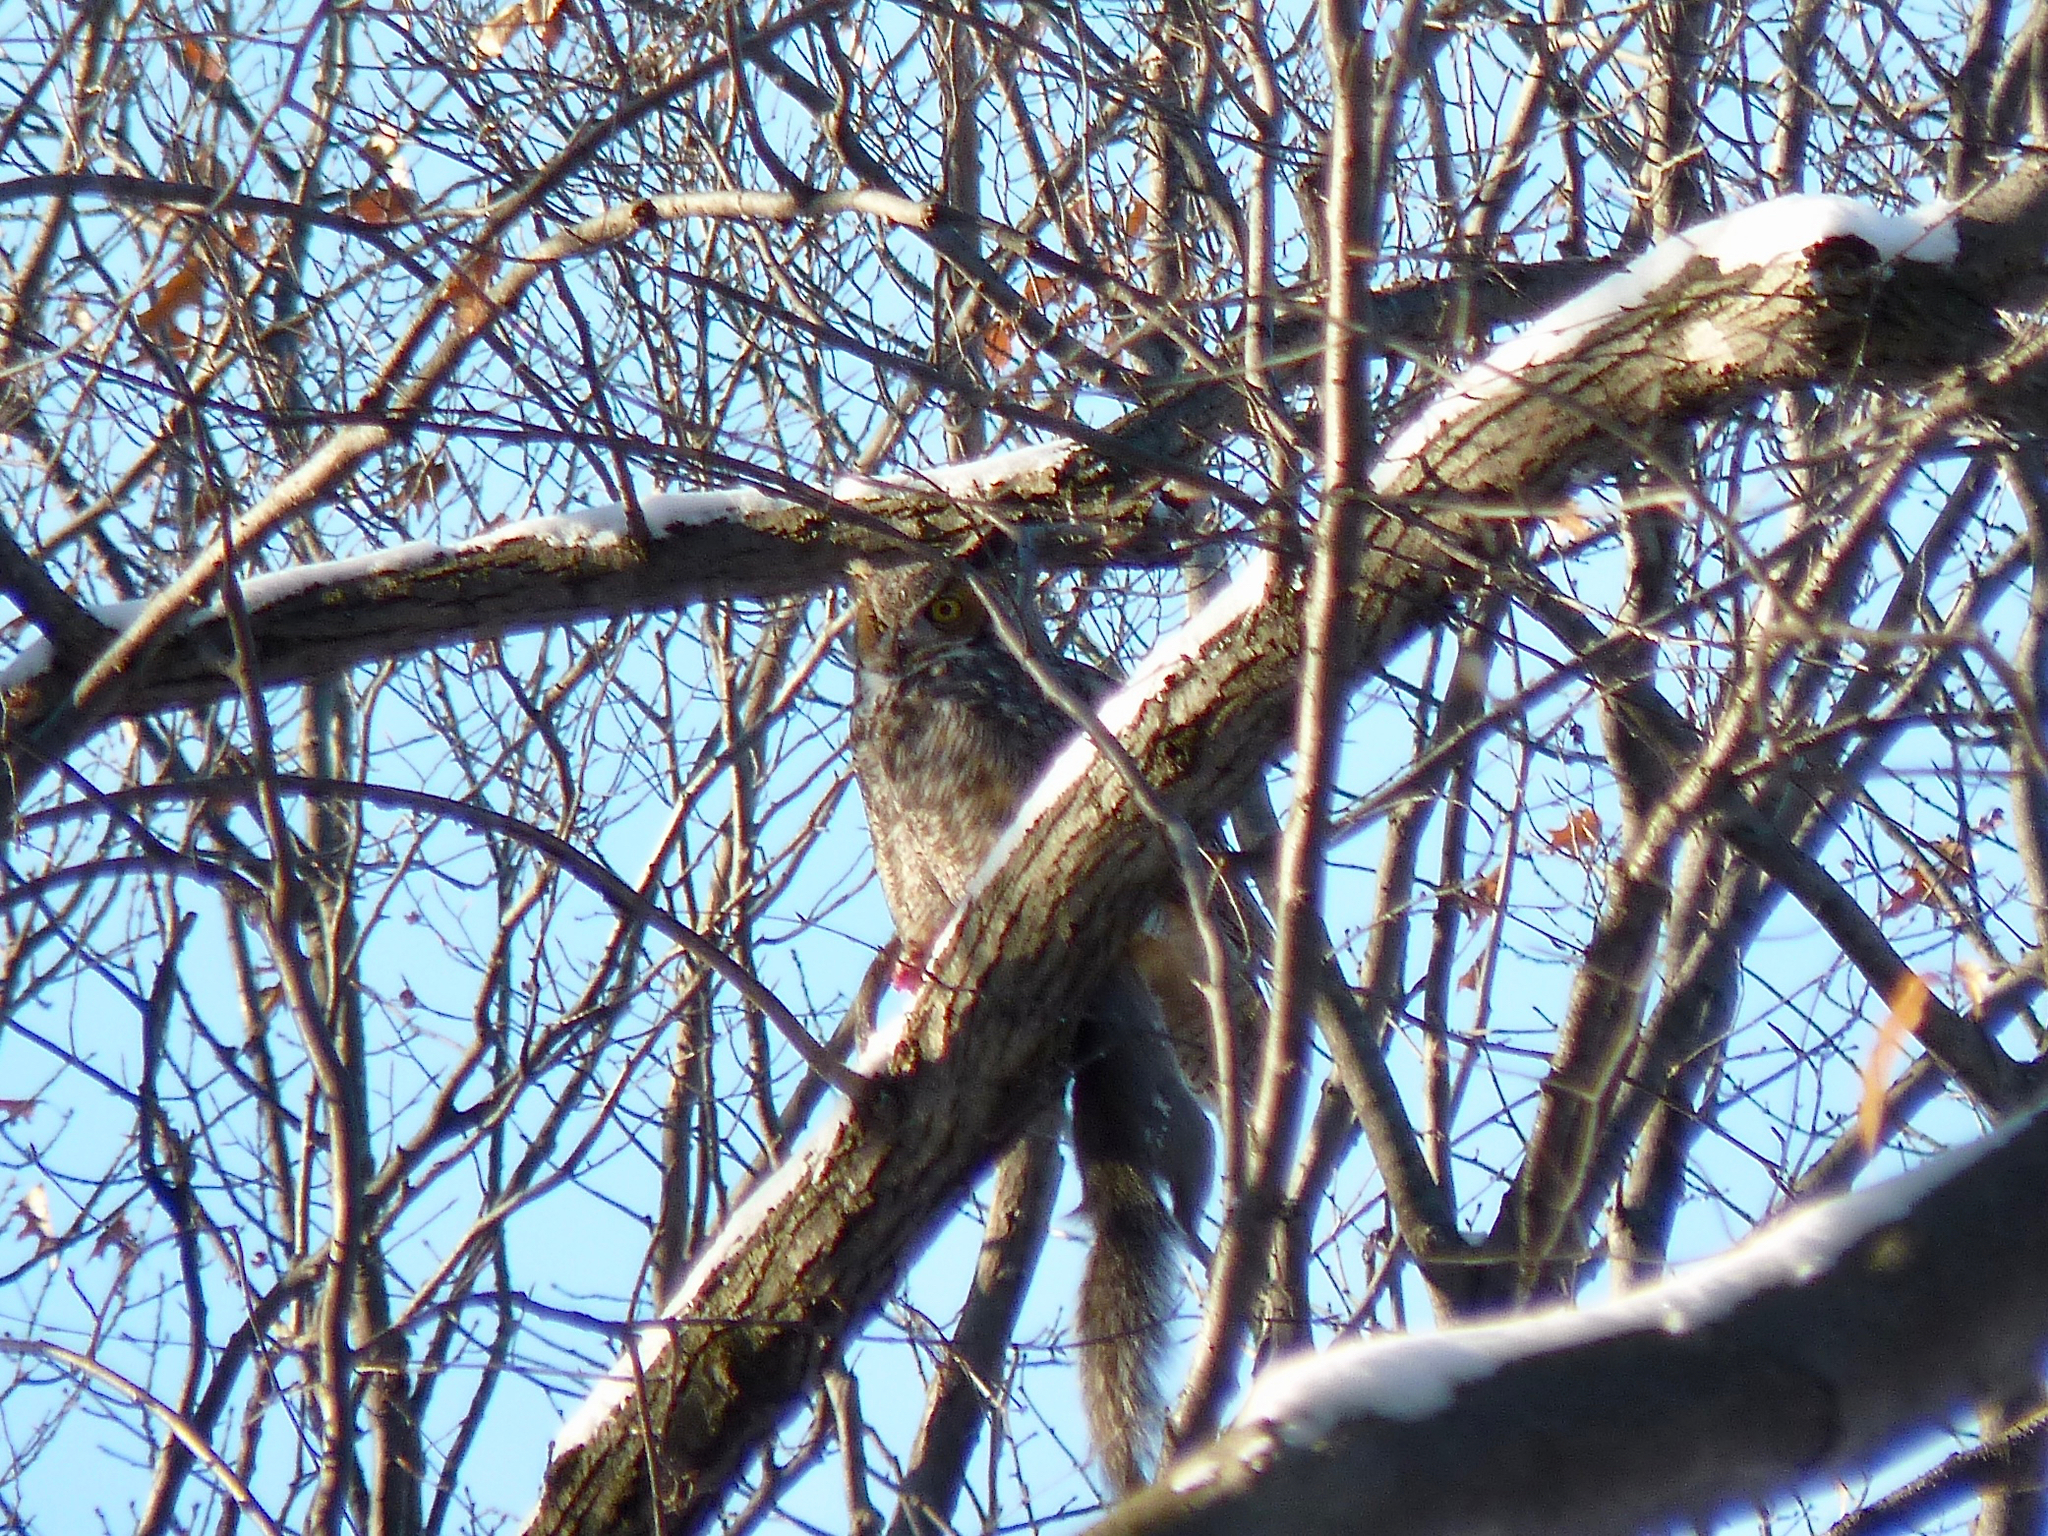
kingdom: Animalia
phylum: Chordata
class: Aves
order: Strigiformes
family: Strigidae
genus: Bubo
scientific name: Bubo virginianus
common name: Great horned owl
